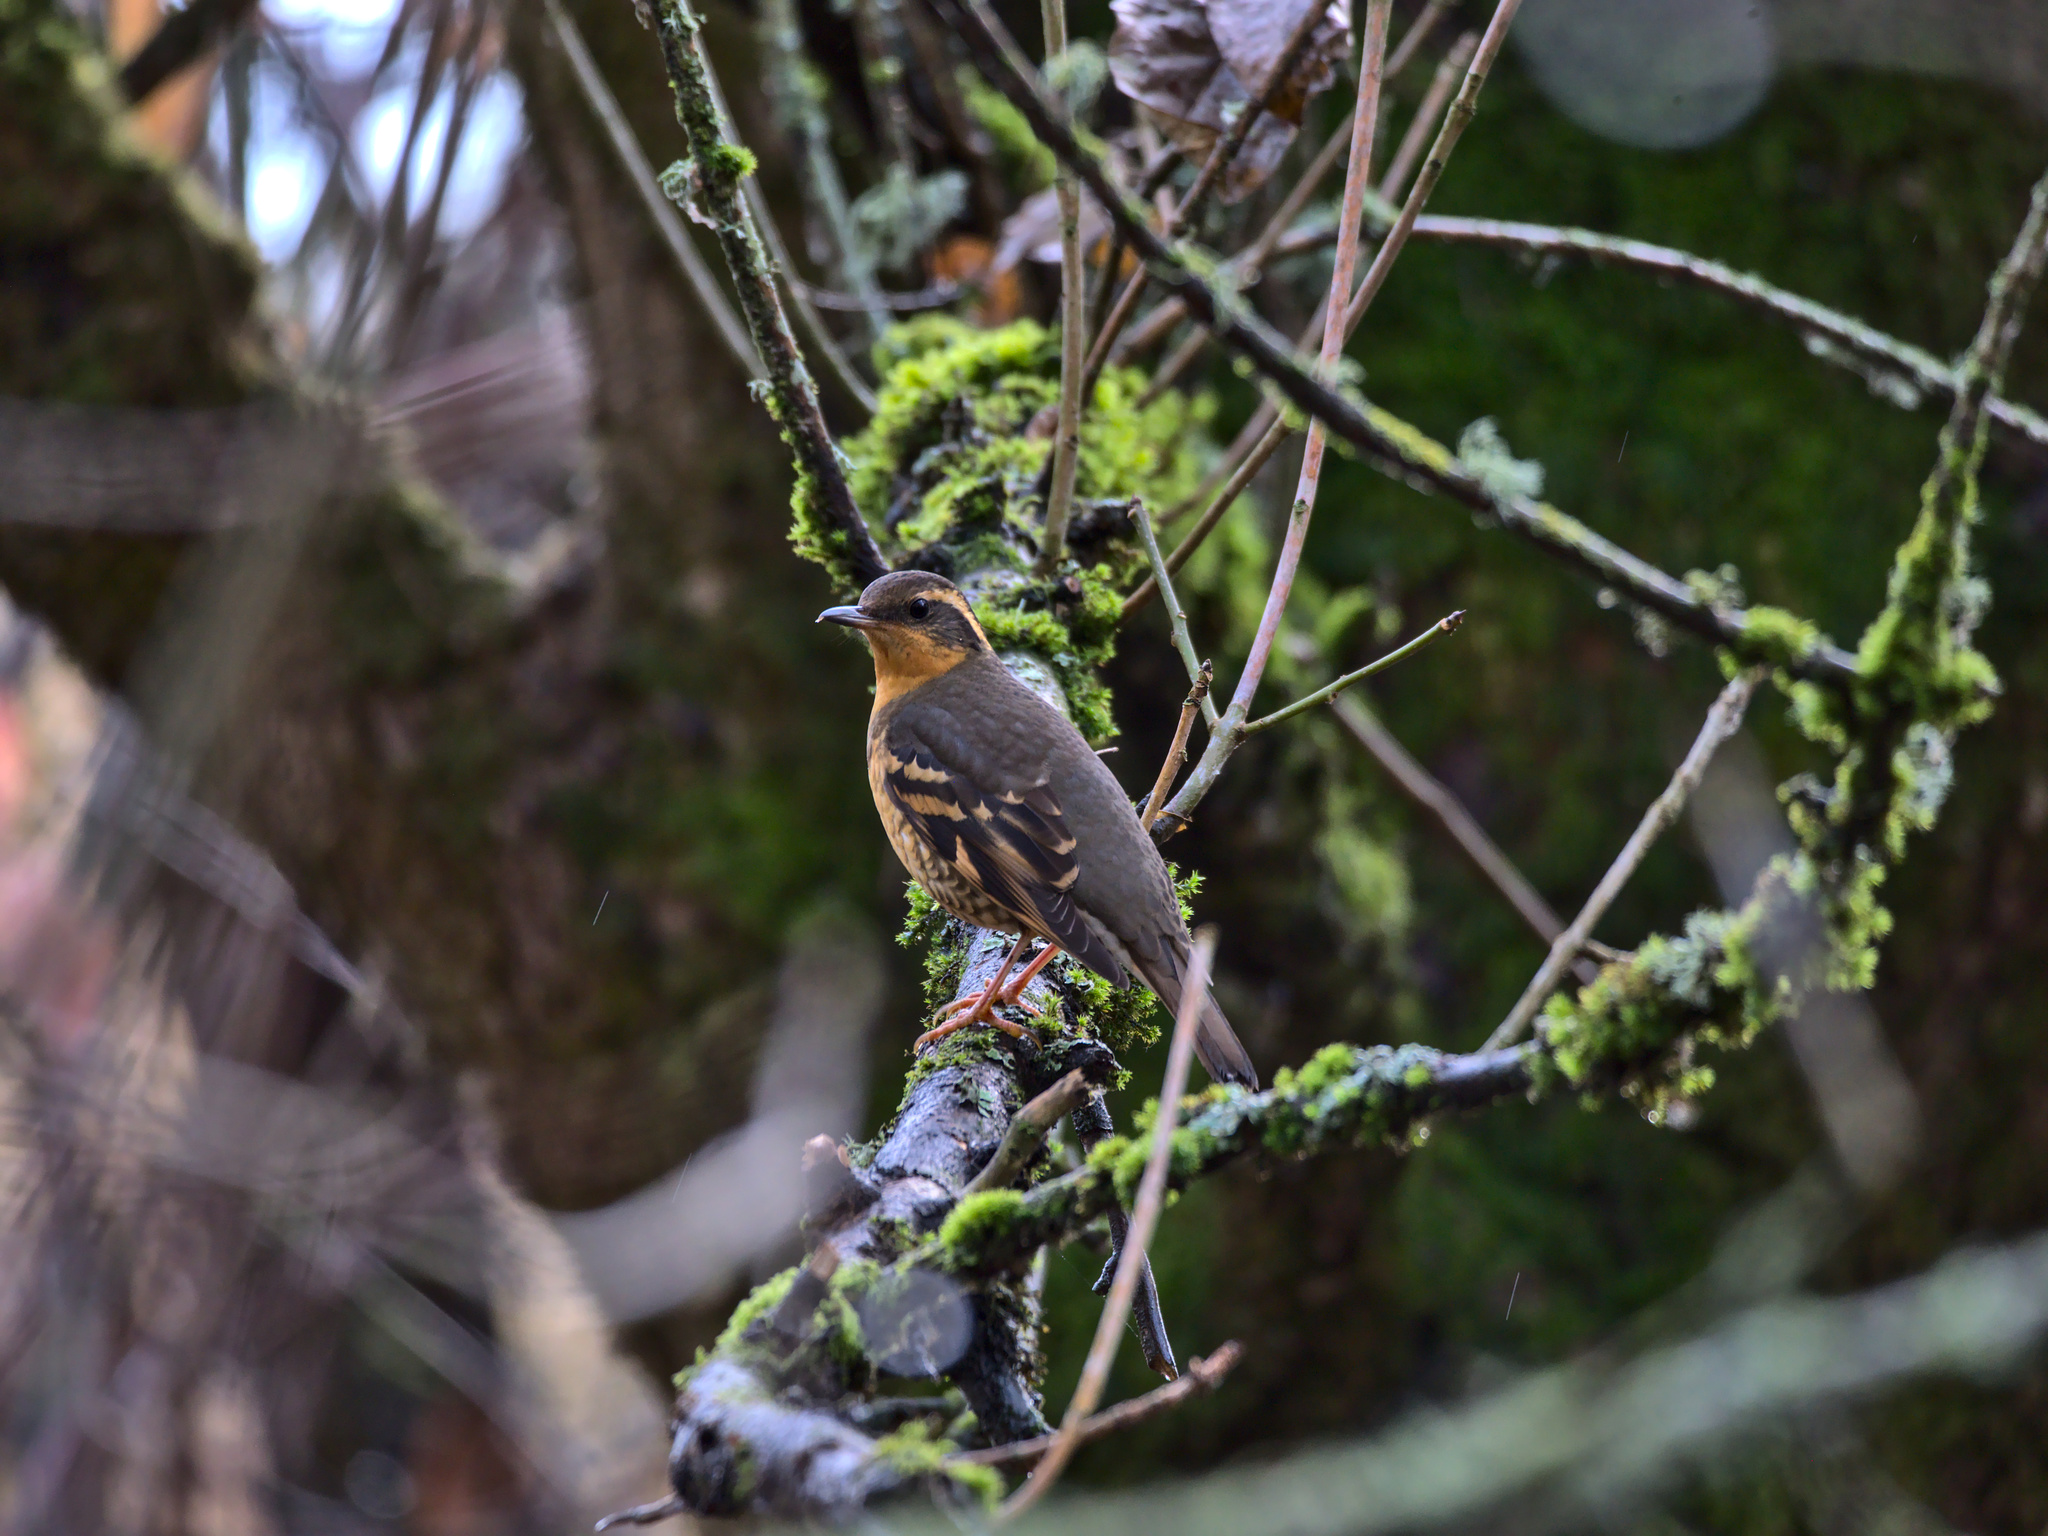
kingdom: Animalia
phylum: Chordata
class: Aves
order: Passeriformes
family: Turdidae
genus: Ixoreus
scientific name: Ixoreus naevius
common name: Varied thrush
